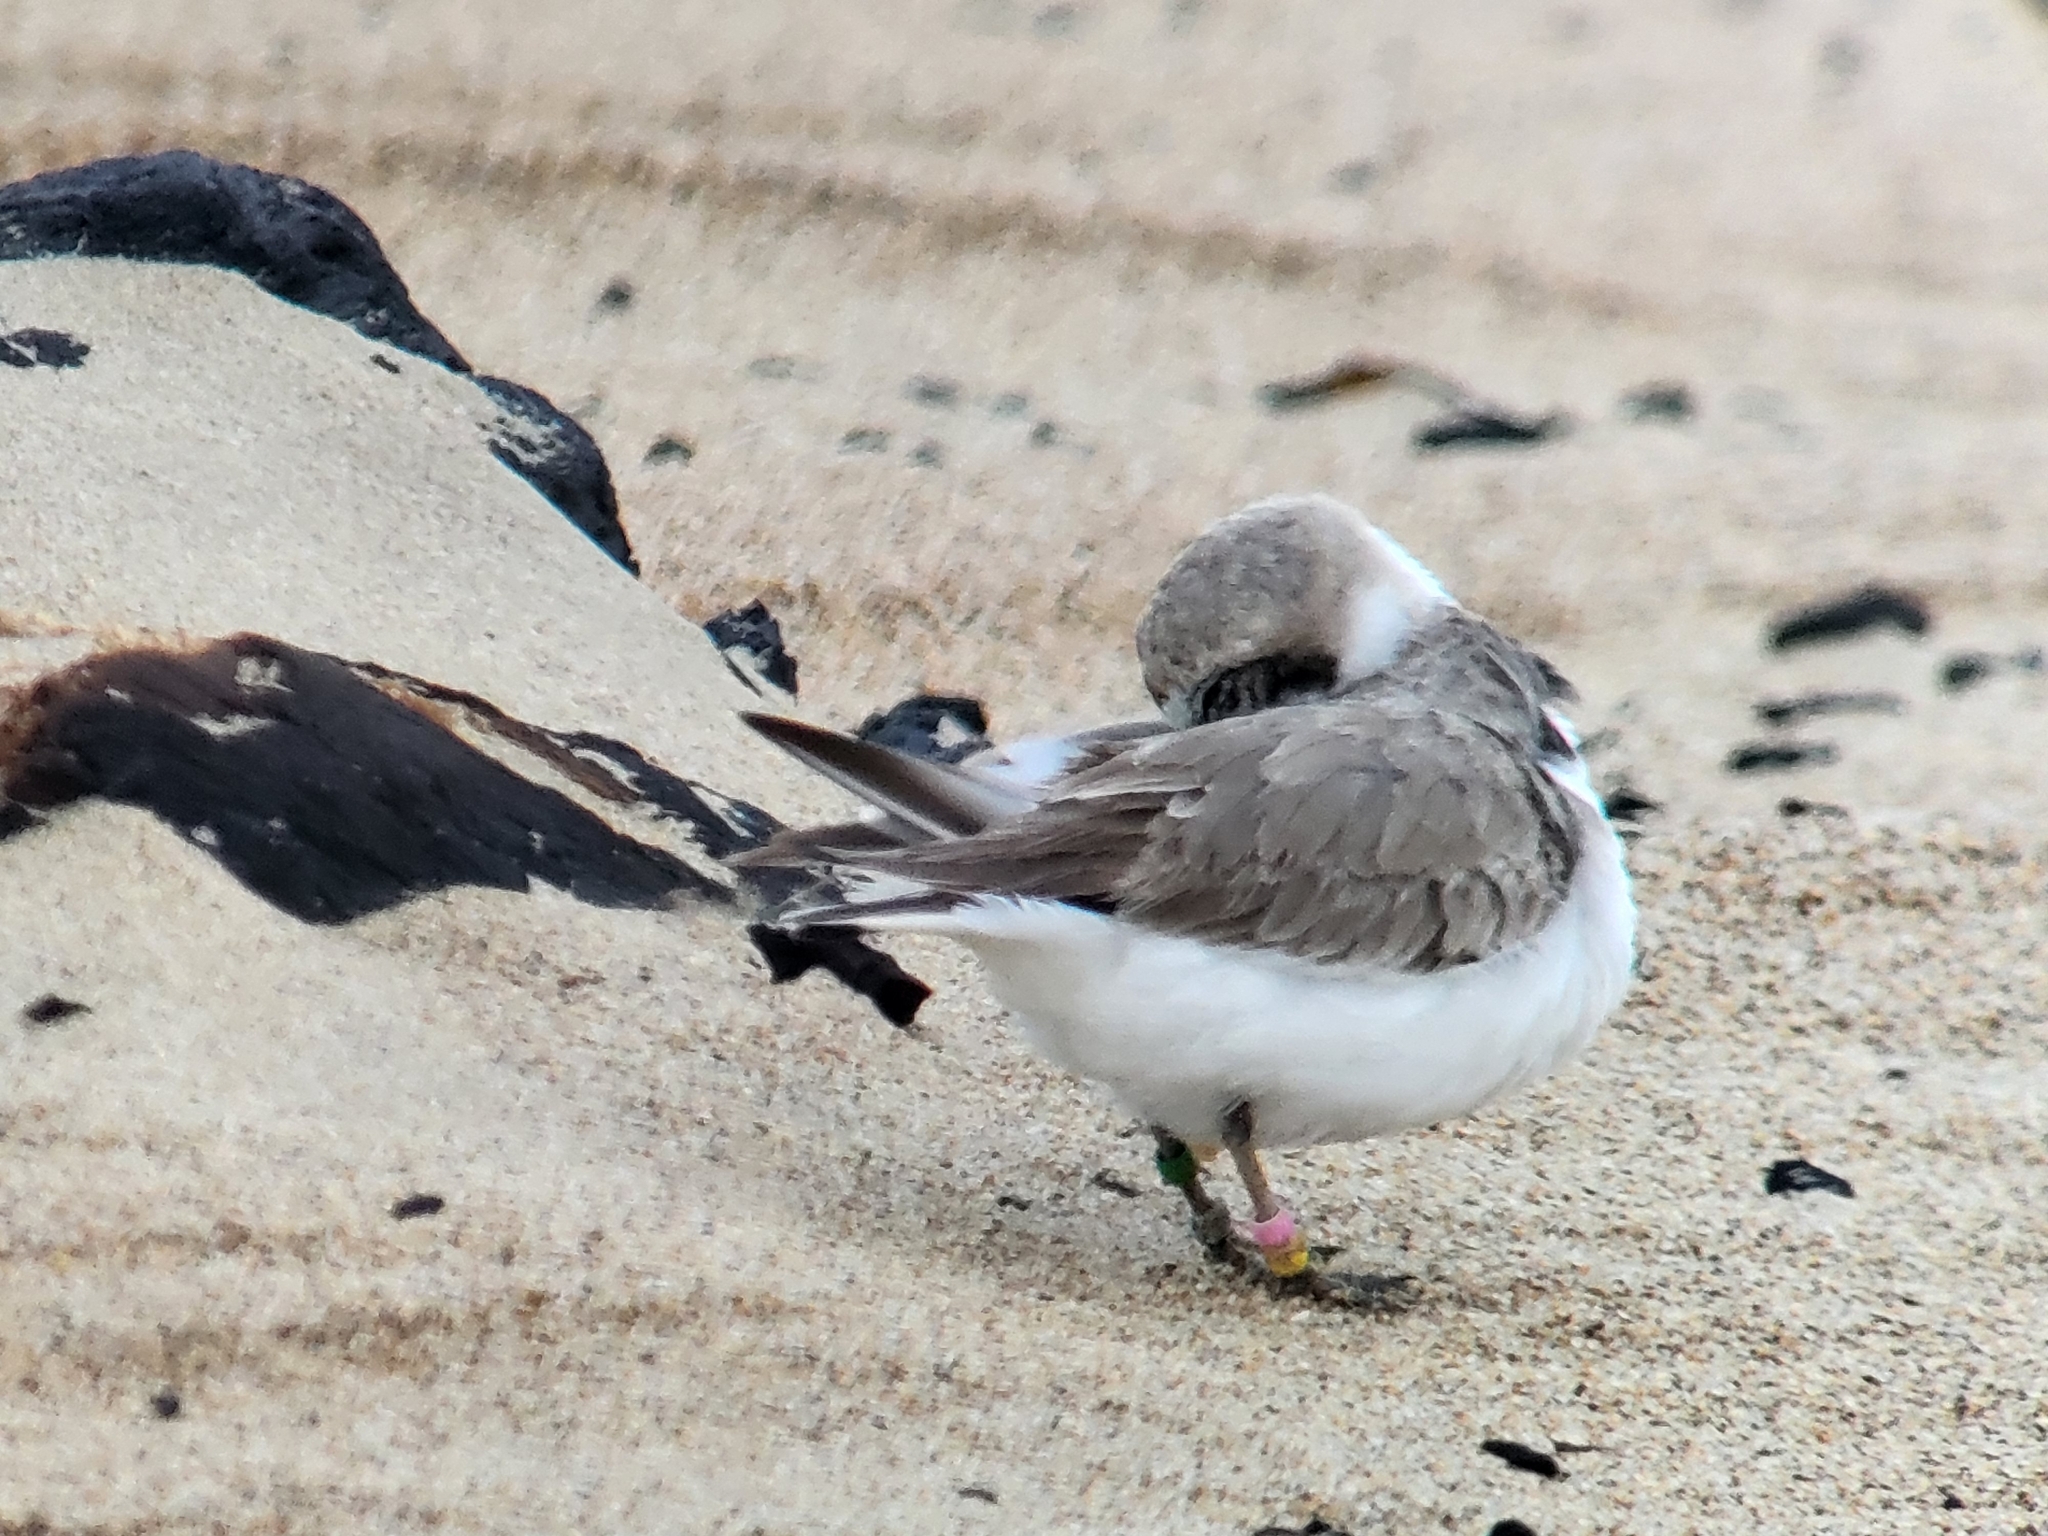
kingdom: Animalia
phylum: Chordata
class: Aves
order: Charadriiformes
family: Charadriidae
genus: Anarhynchus
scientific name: Anarhynchus
